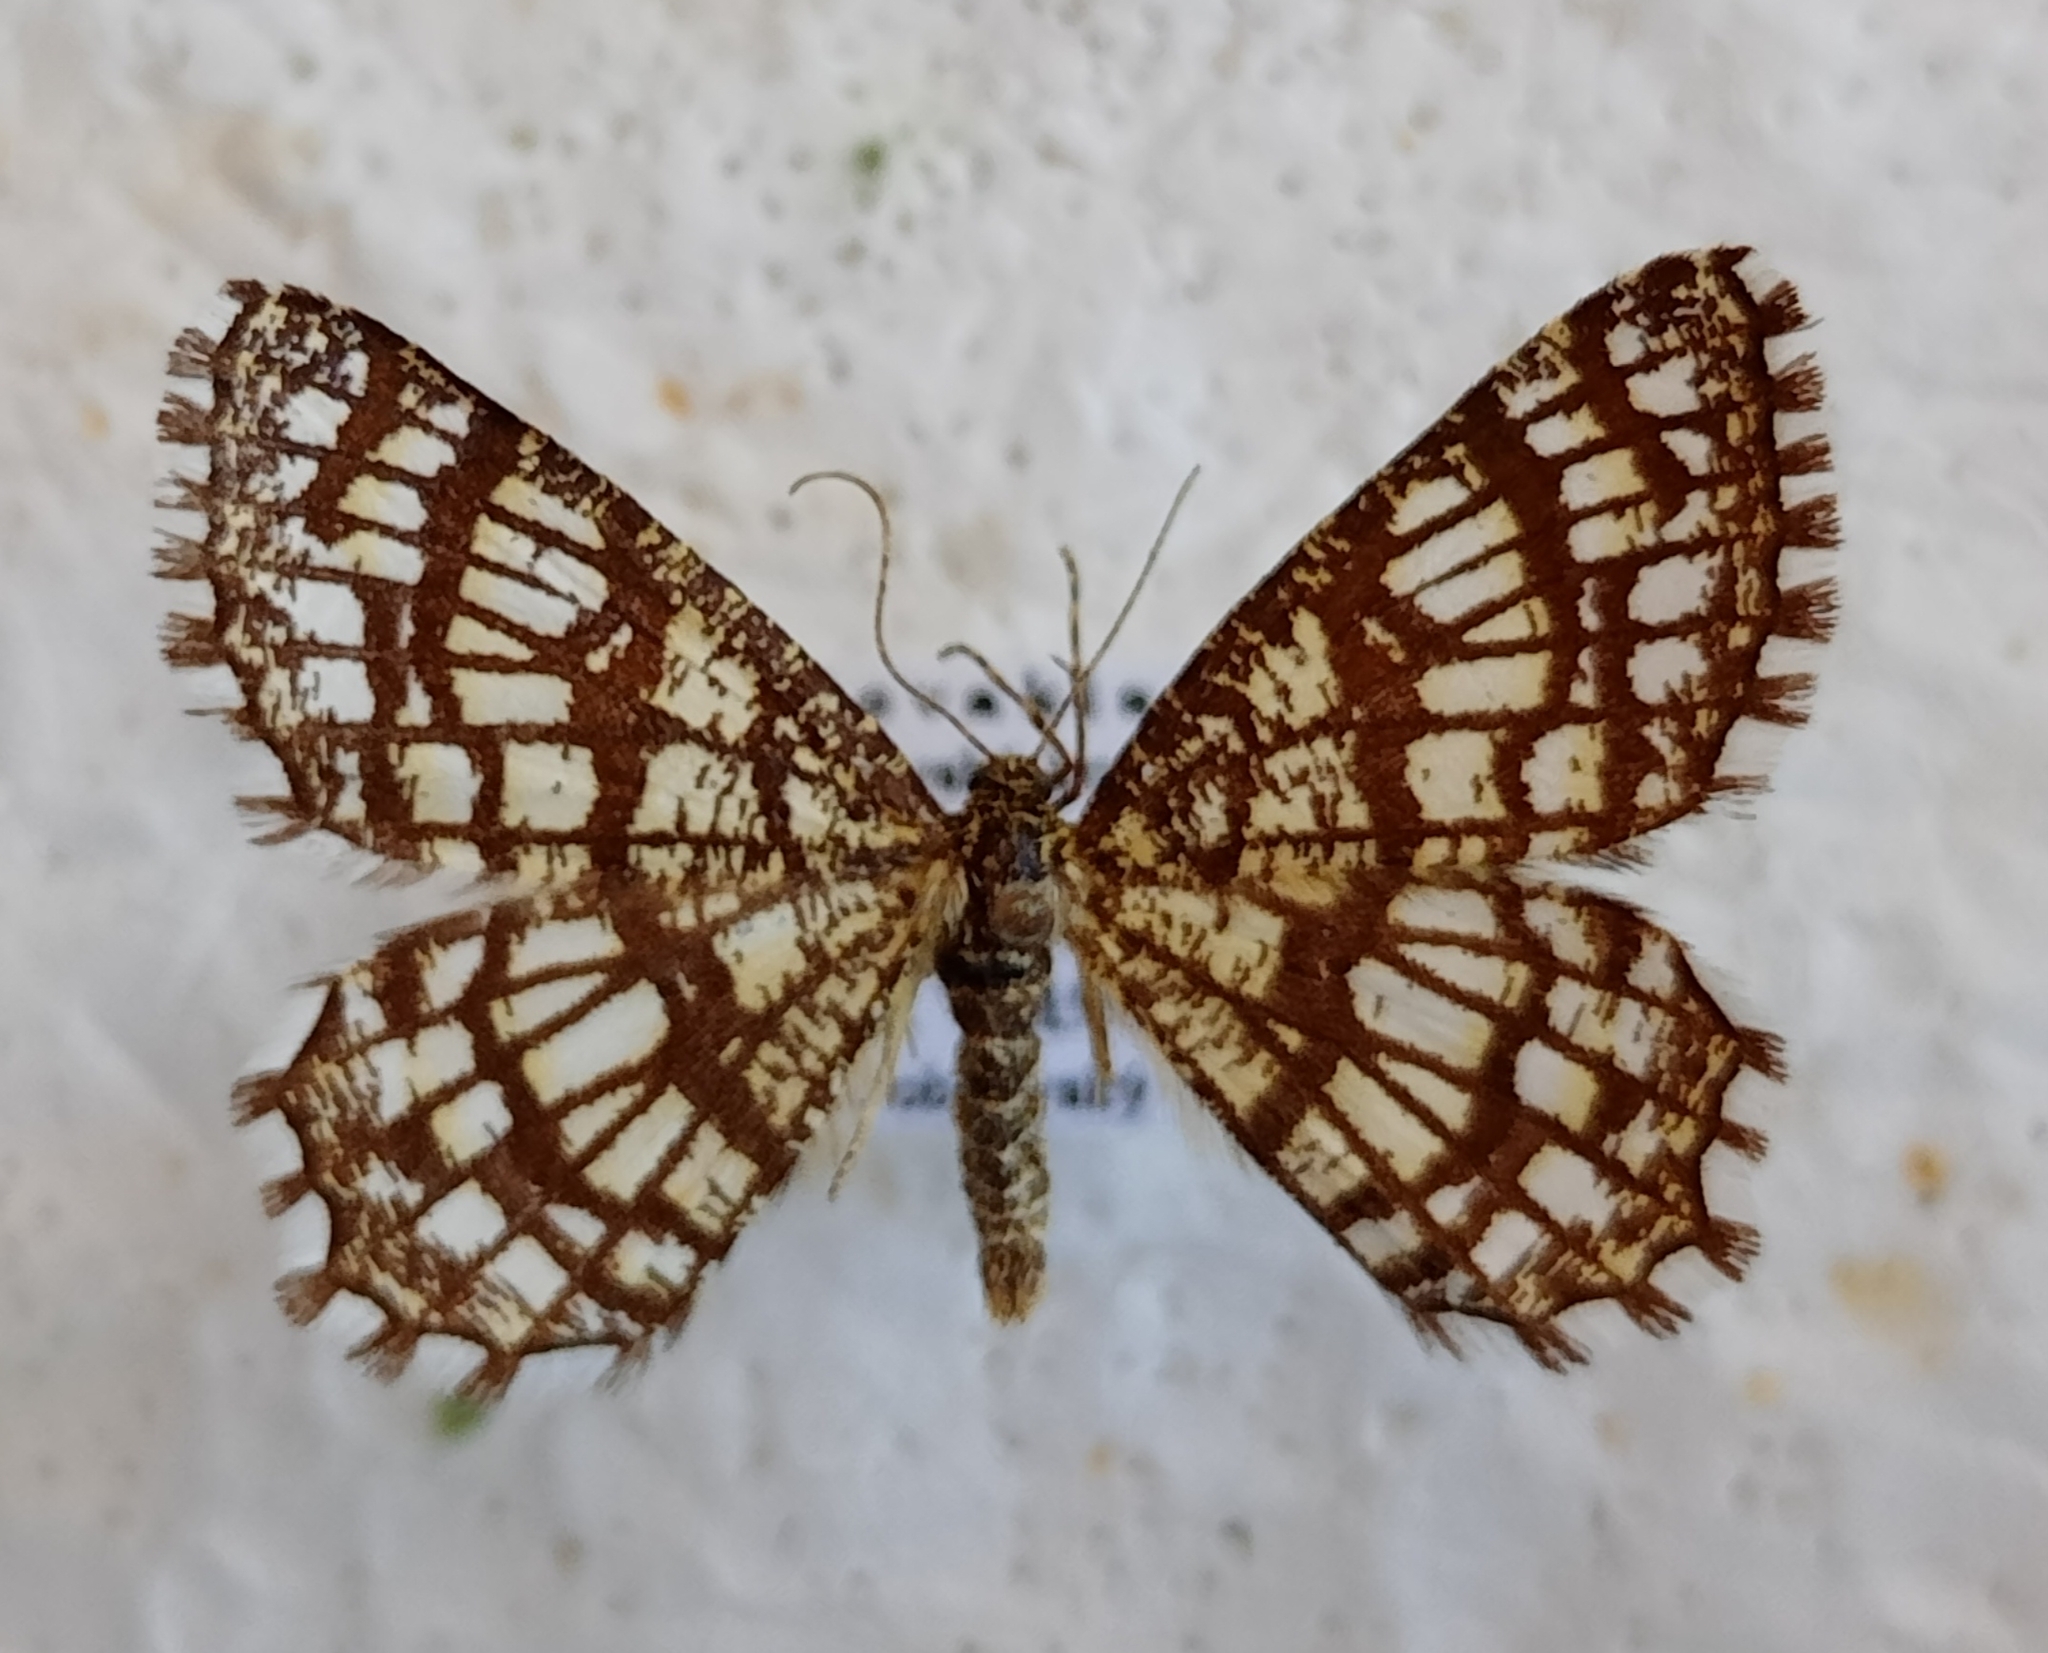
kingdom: Animalia
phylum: Arthropoda
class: Insecta
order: Lepidoptera
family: Geometridae
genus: Chiasmia
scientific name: Chiasmia clathrata
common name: Latticed heath
